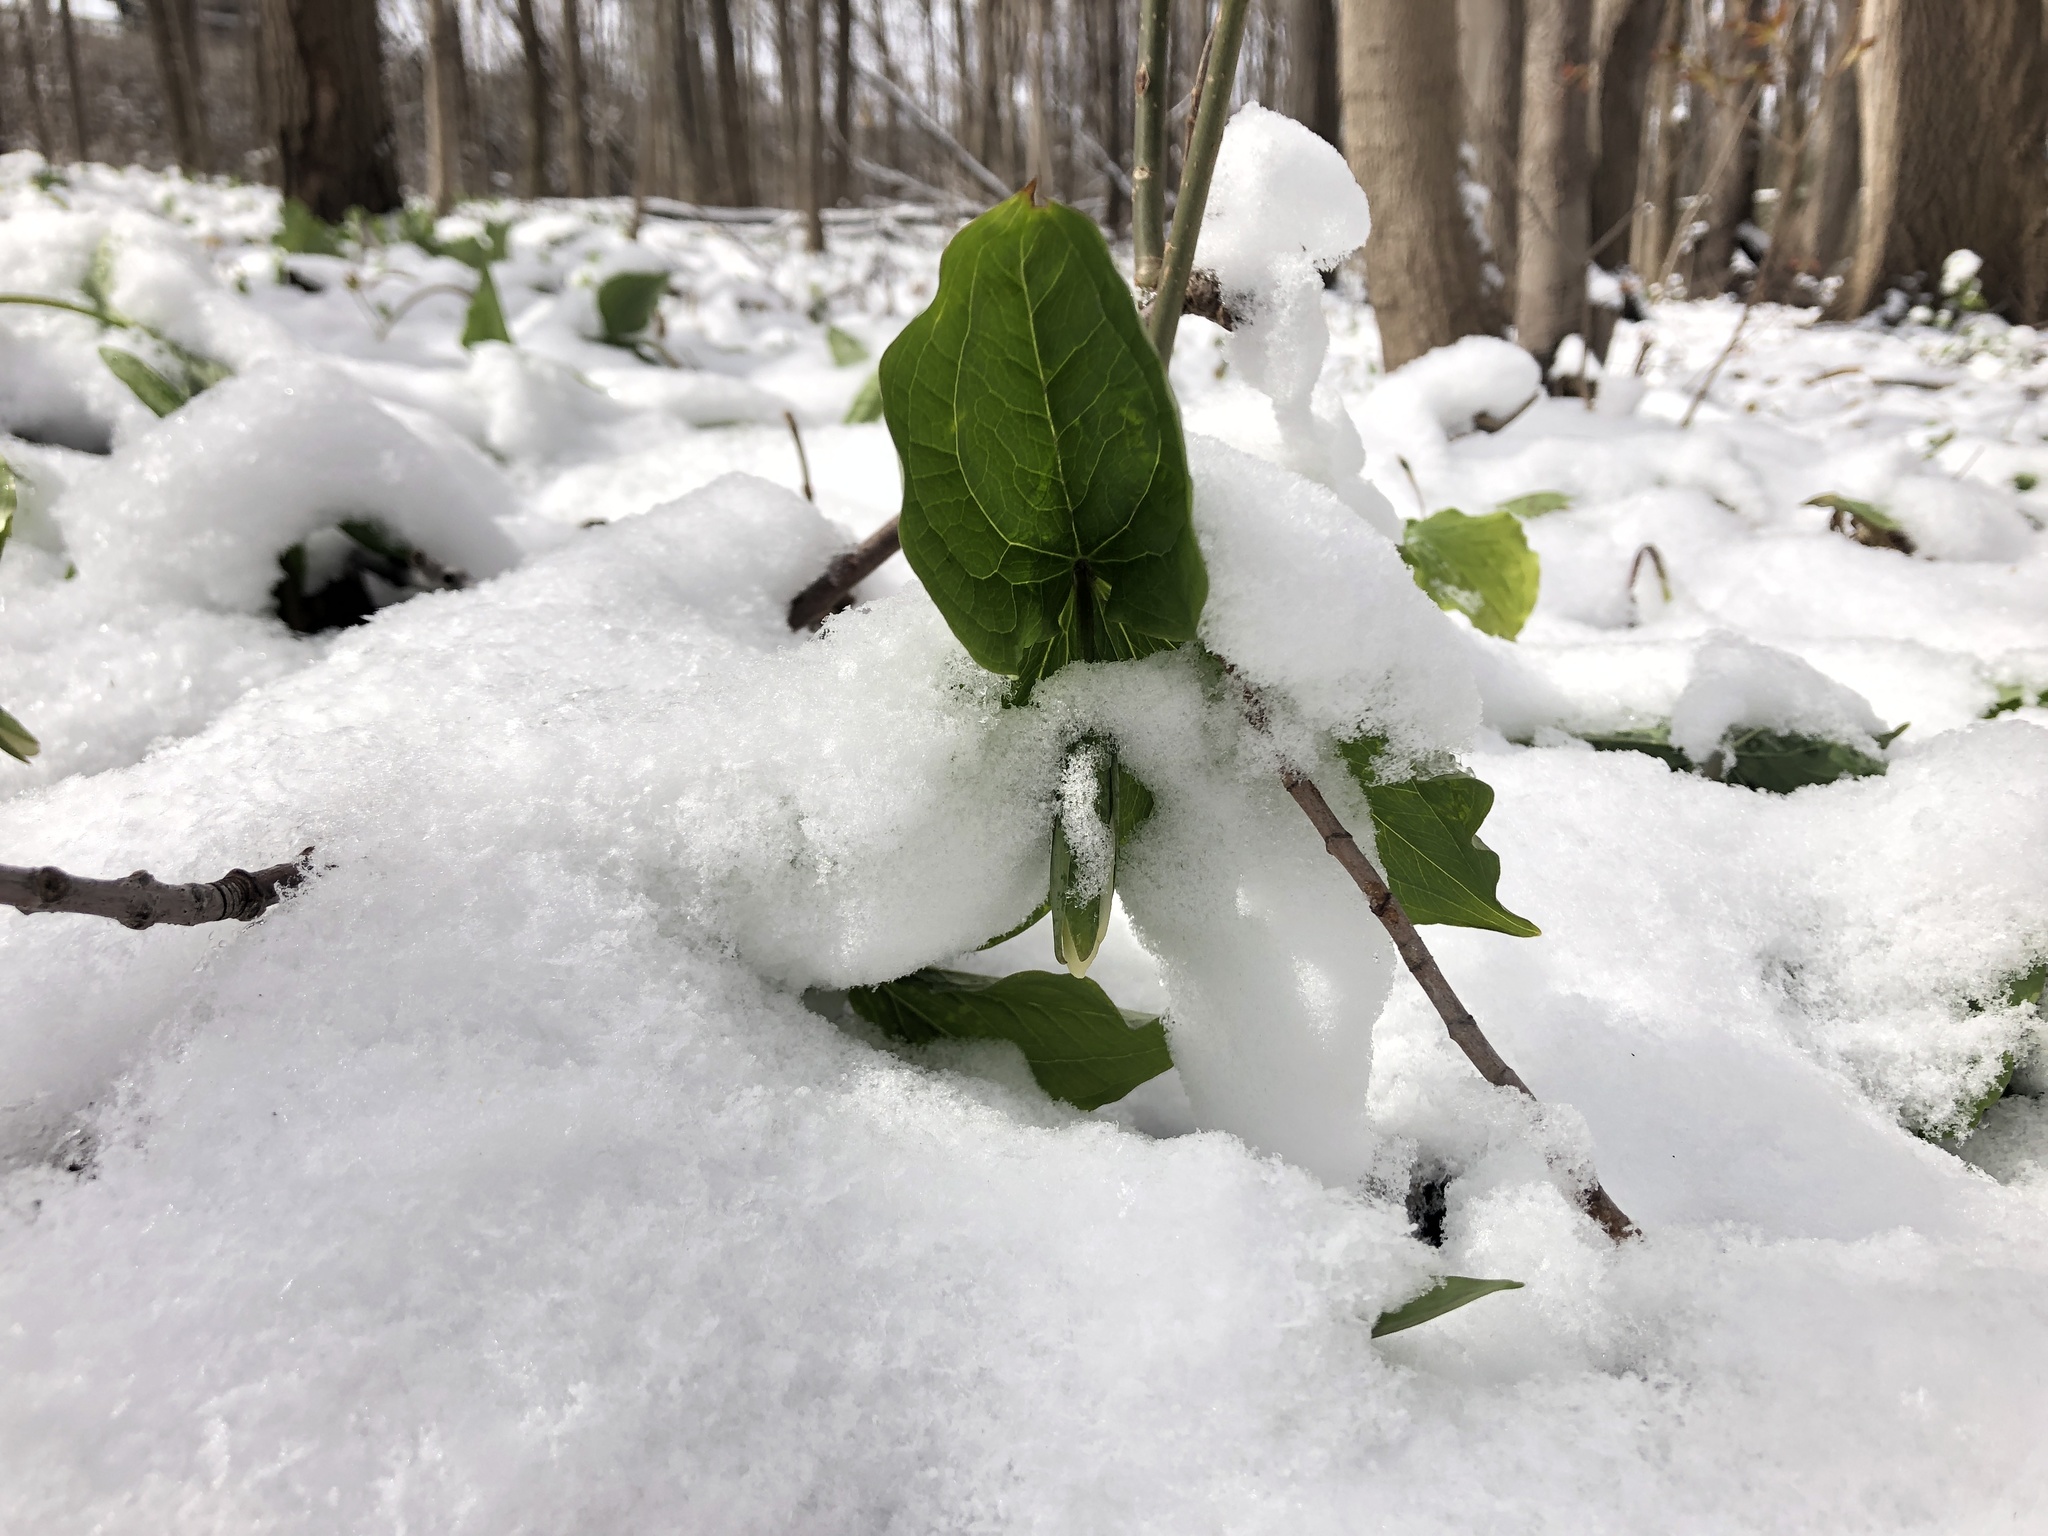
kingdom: Plantae
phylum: Tracheophyta
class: Liliopsida
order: Liliales
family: Melanthiaceae
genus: Trillium
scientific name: Trillium grandiflorum
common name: Great white trillium
